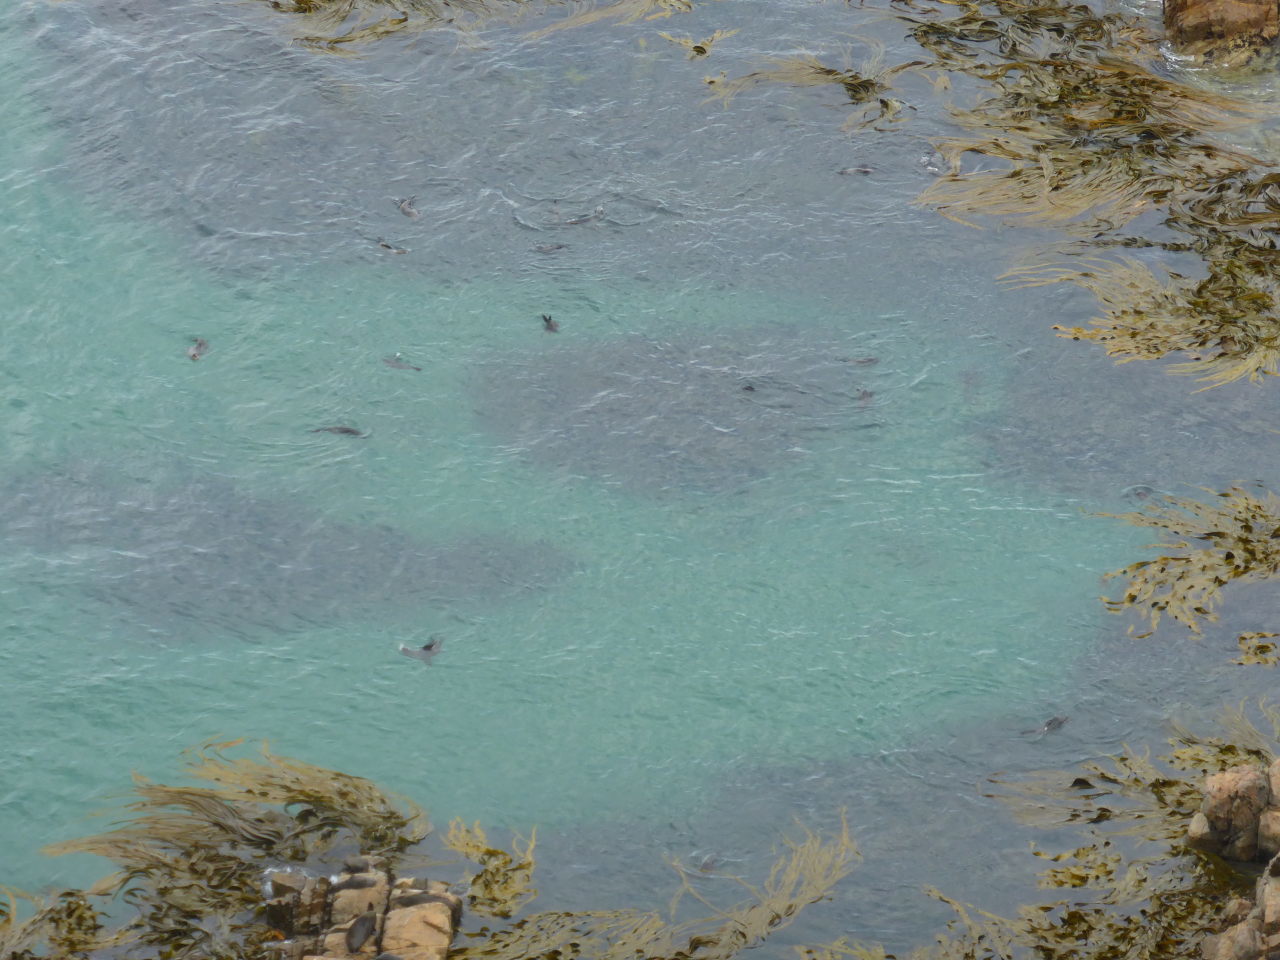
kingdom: Animalia
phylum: Chordata
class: Mammalia
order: Carnivora
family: Otariidae
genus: Arctocephalus
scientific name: Arctocephalus forsteri
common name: New zealand fur seal
